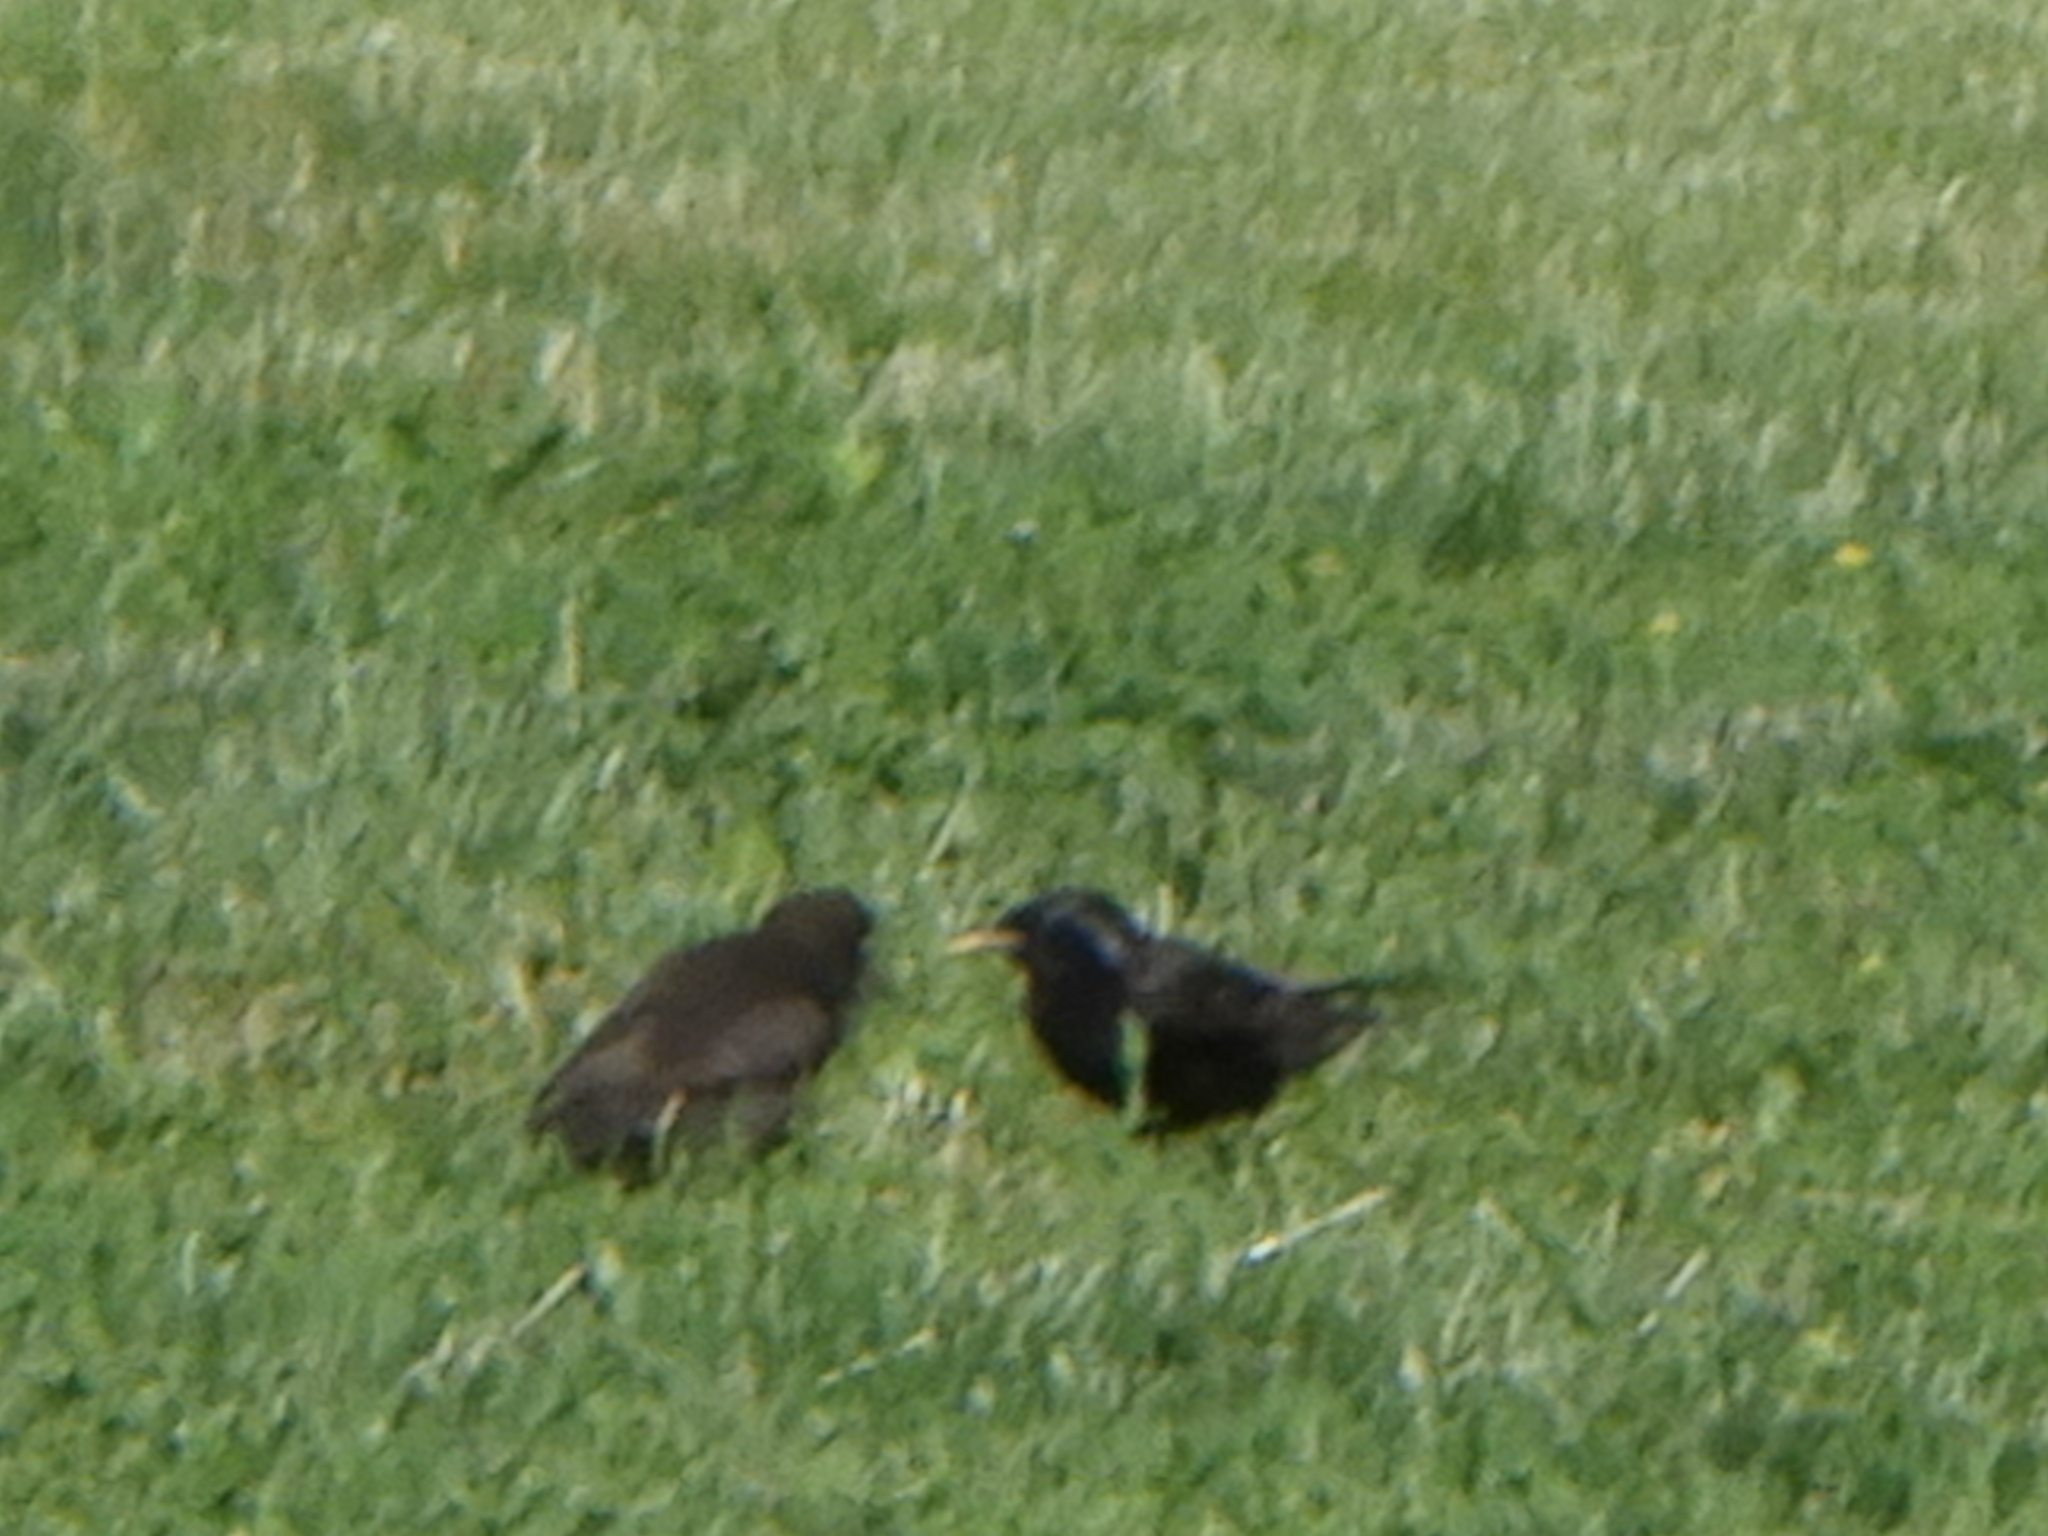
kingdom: Animalia
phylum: Chordata
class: Aves
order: Passeriformes
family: Sturnidae
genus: Sturnus
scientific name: Sturnus vulgaris
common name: Common starling
